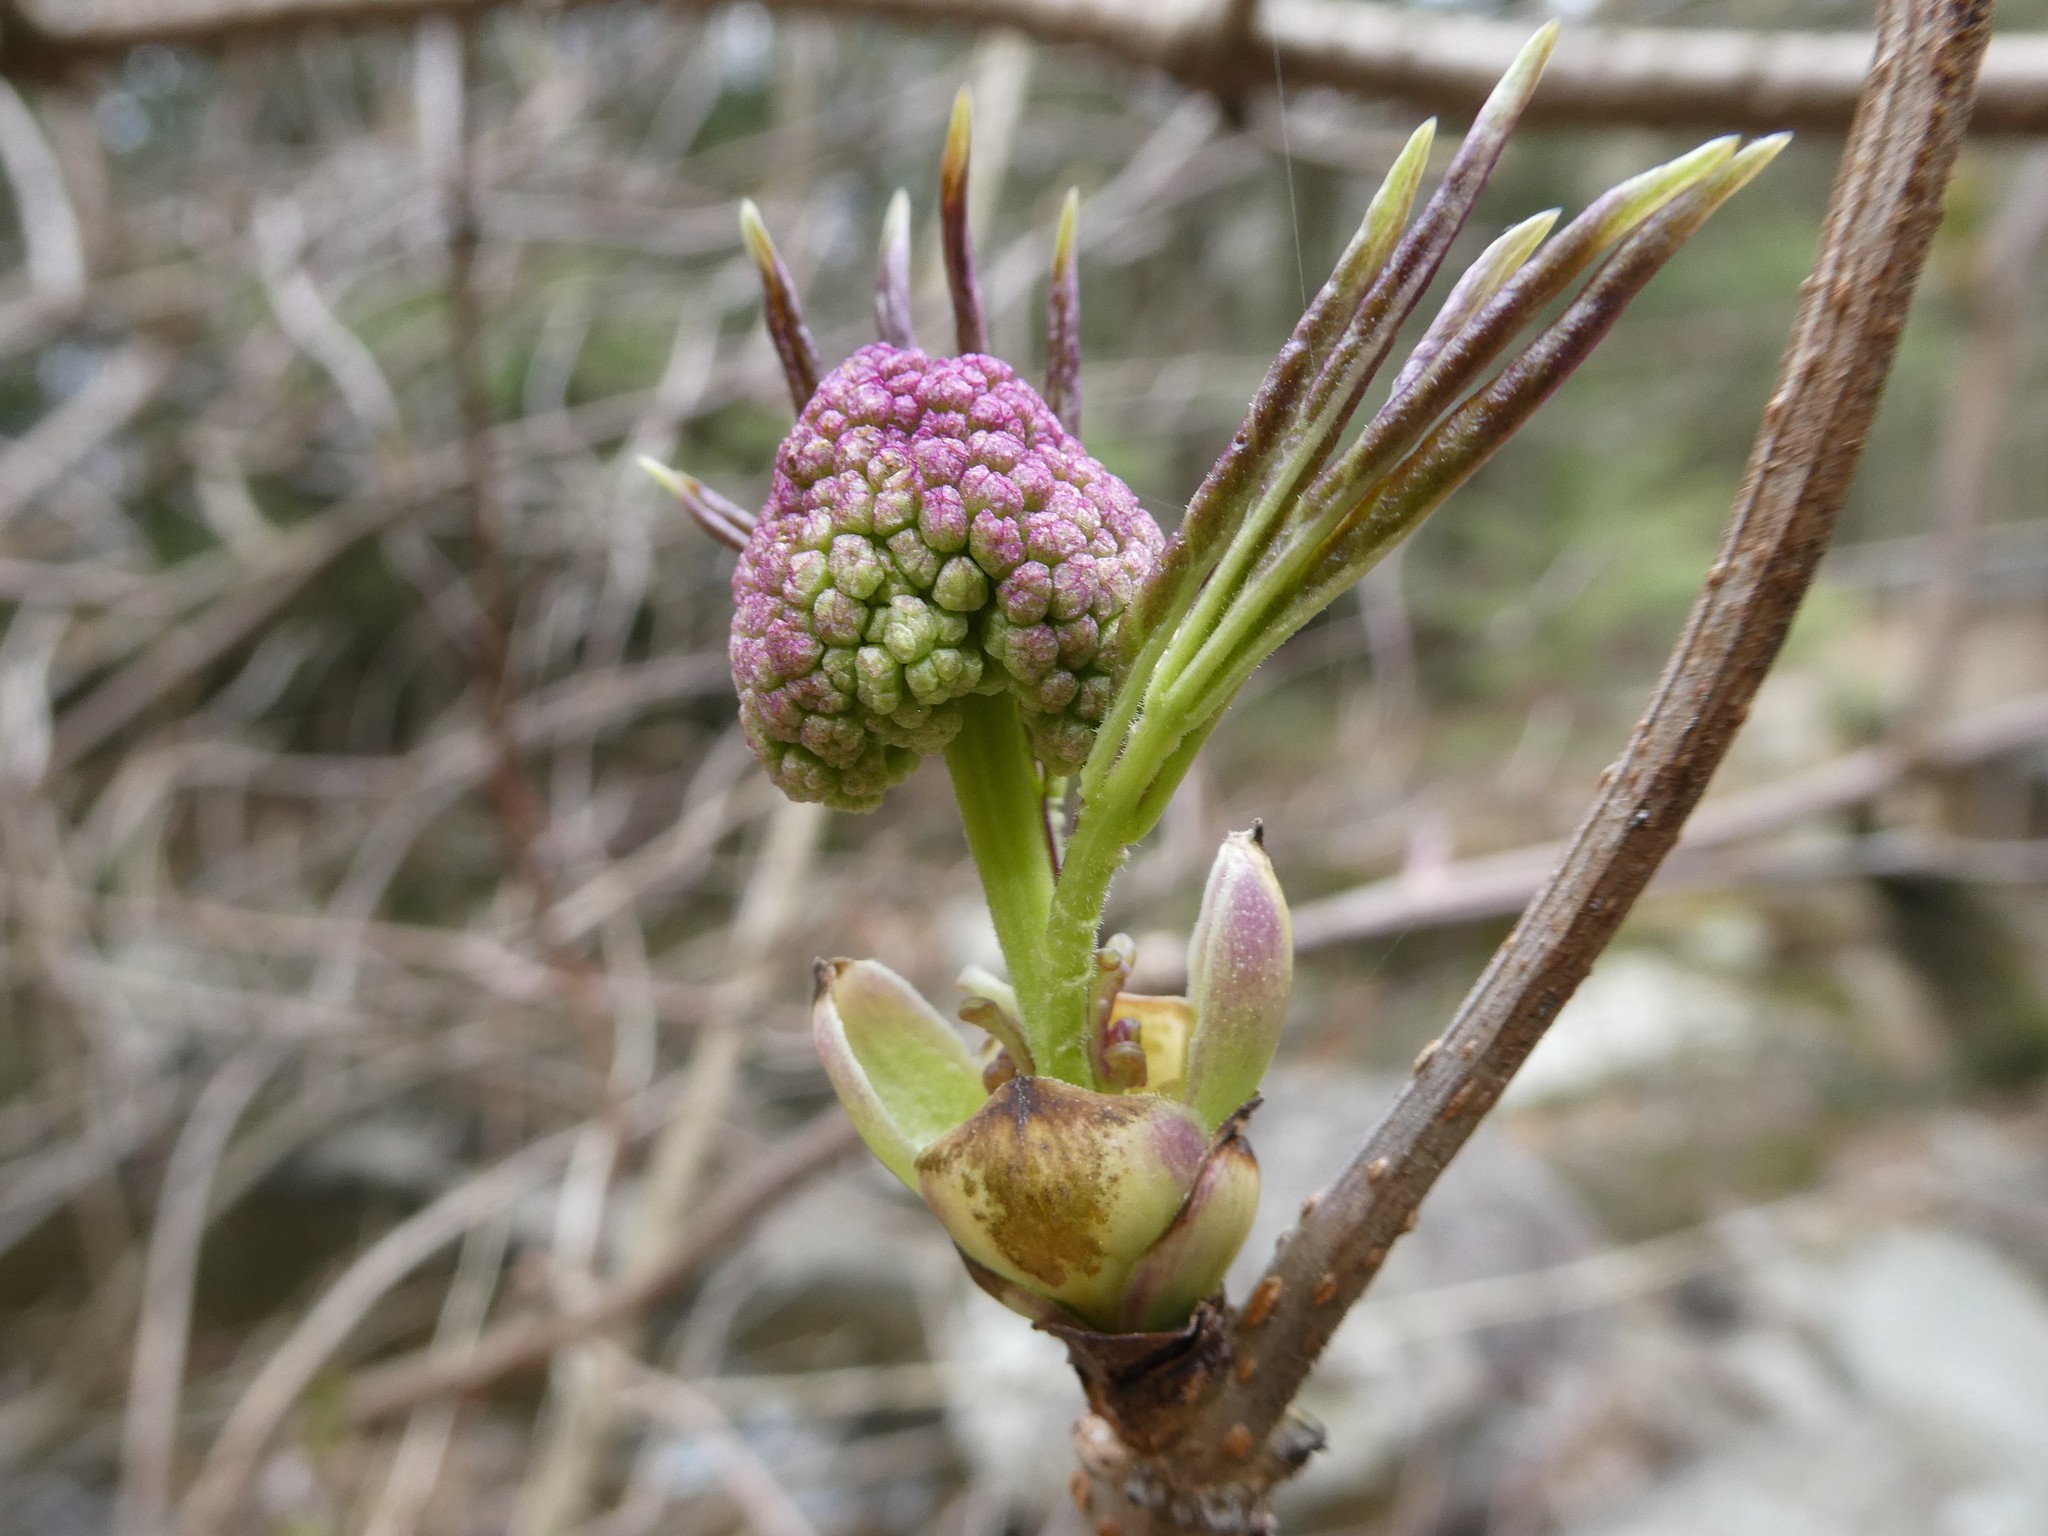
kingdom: Plantae
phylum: Tracheophyta
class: Magnoliopsida
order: Dipsacales
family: Viburnaceae
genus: Sambucus
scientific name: Sambucus racemosa
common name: Red-berried elder
